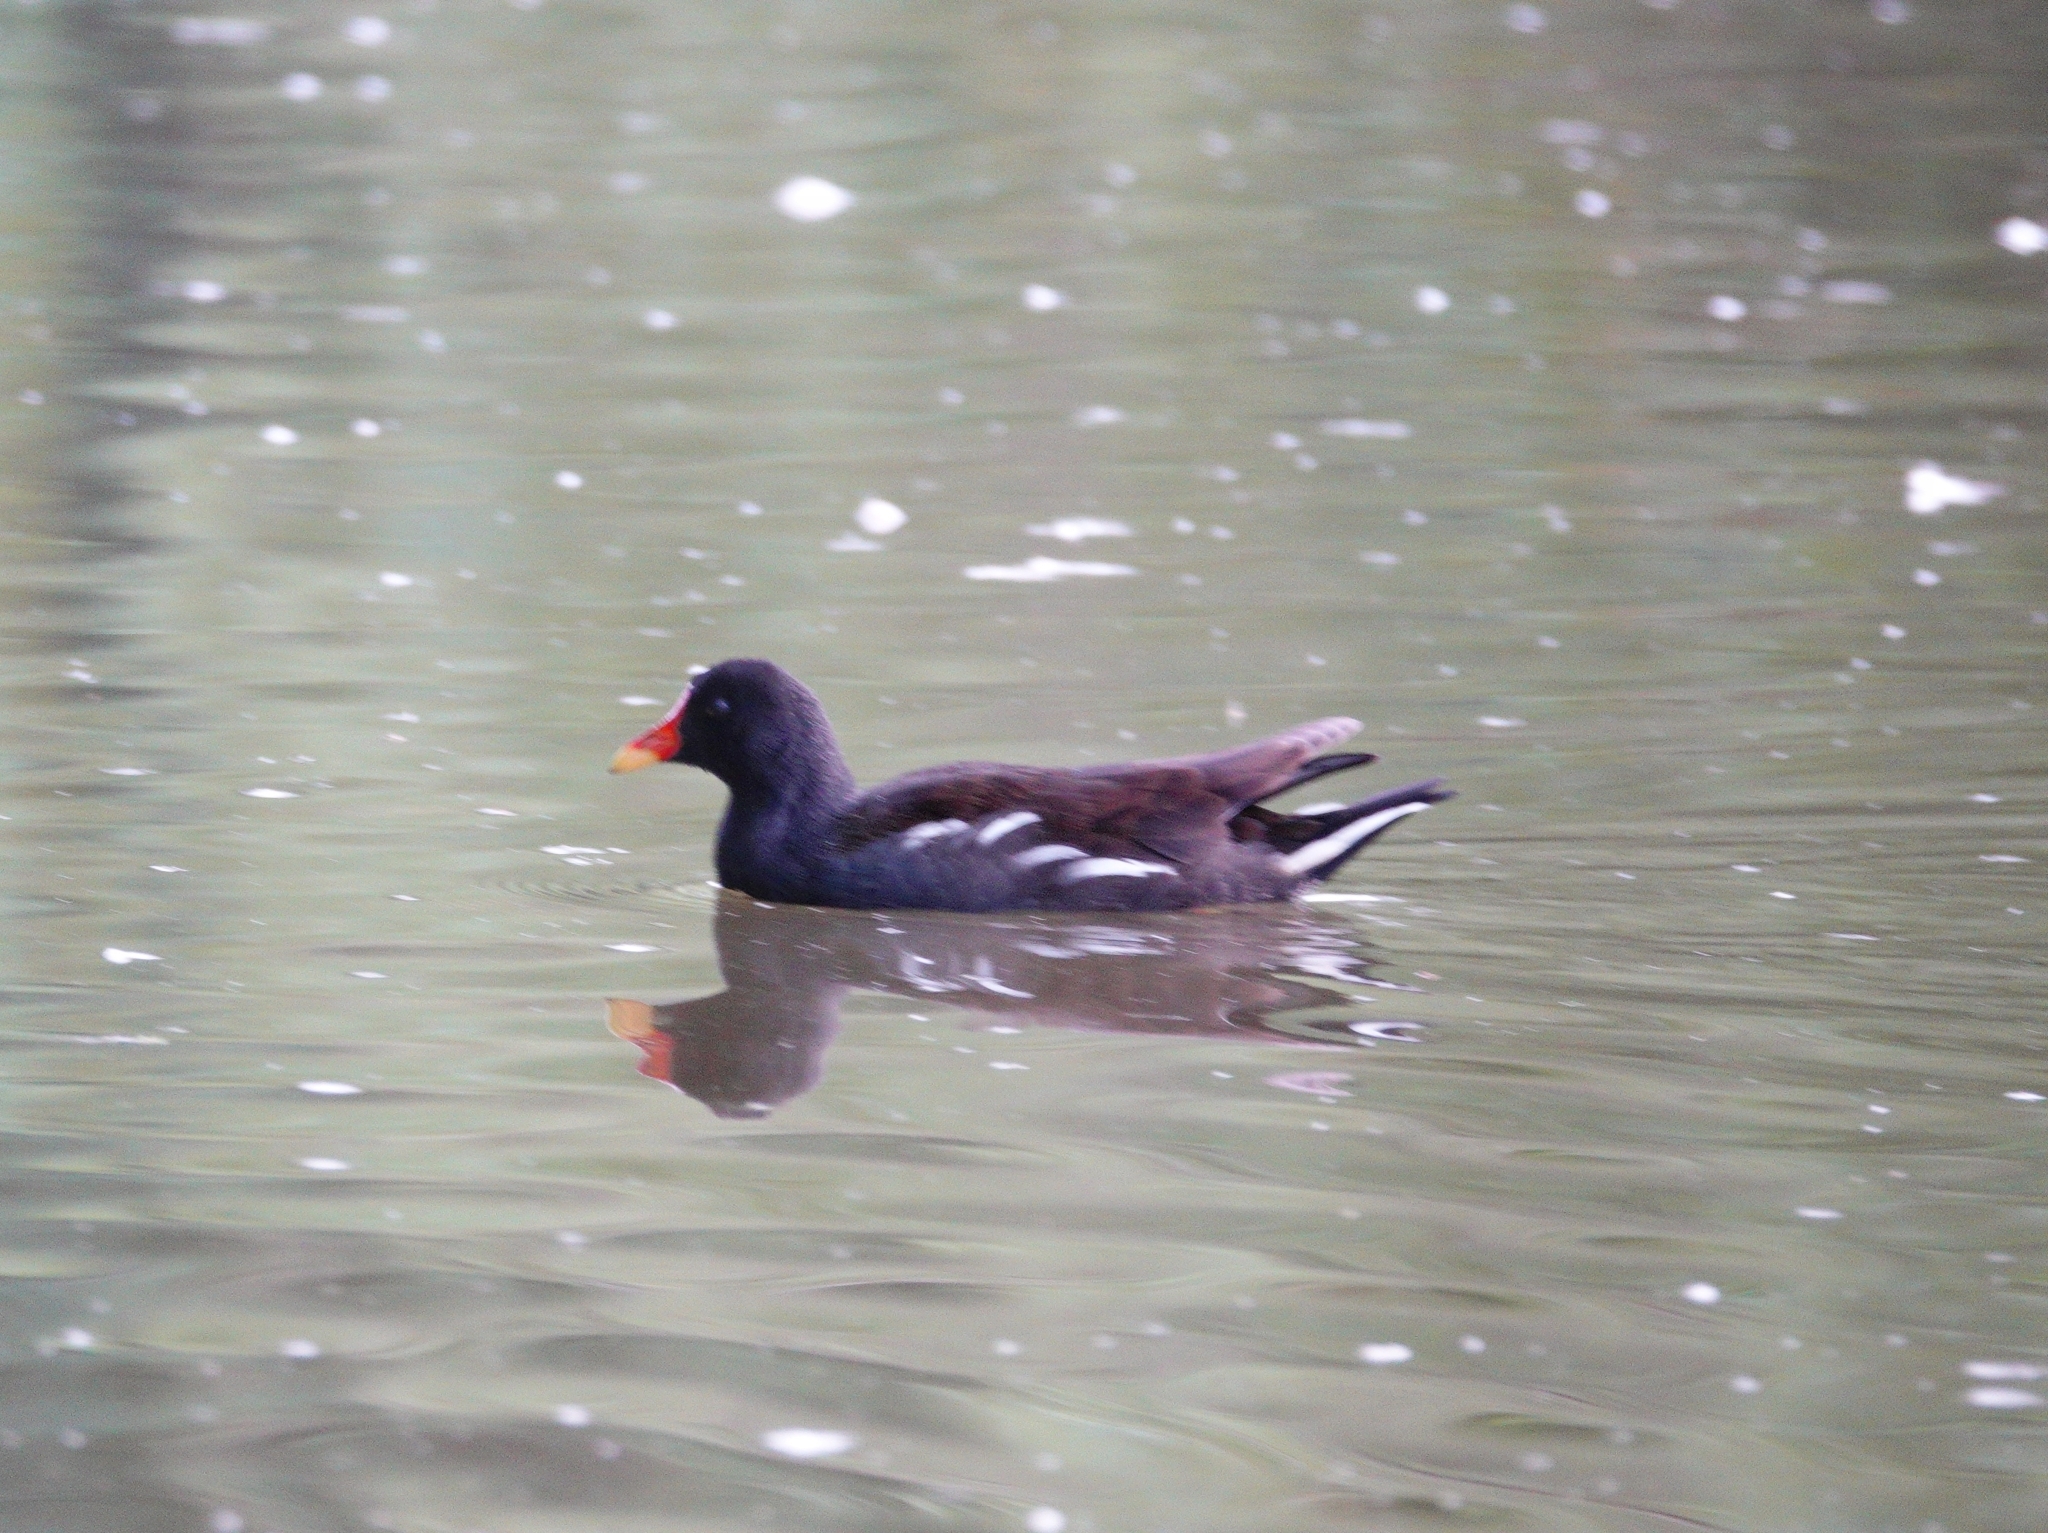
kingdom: Animalia
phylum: Chordata
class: Aves
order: Gruiformes
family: Rallidae
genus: Gallinula
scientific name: Gallinula chloropus
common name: Common moorhen
